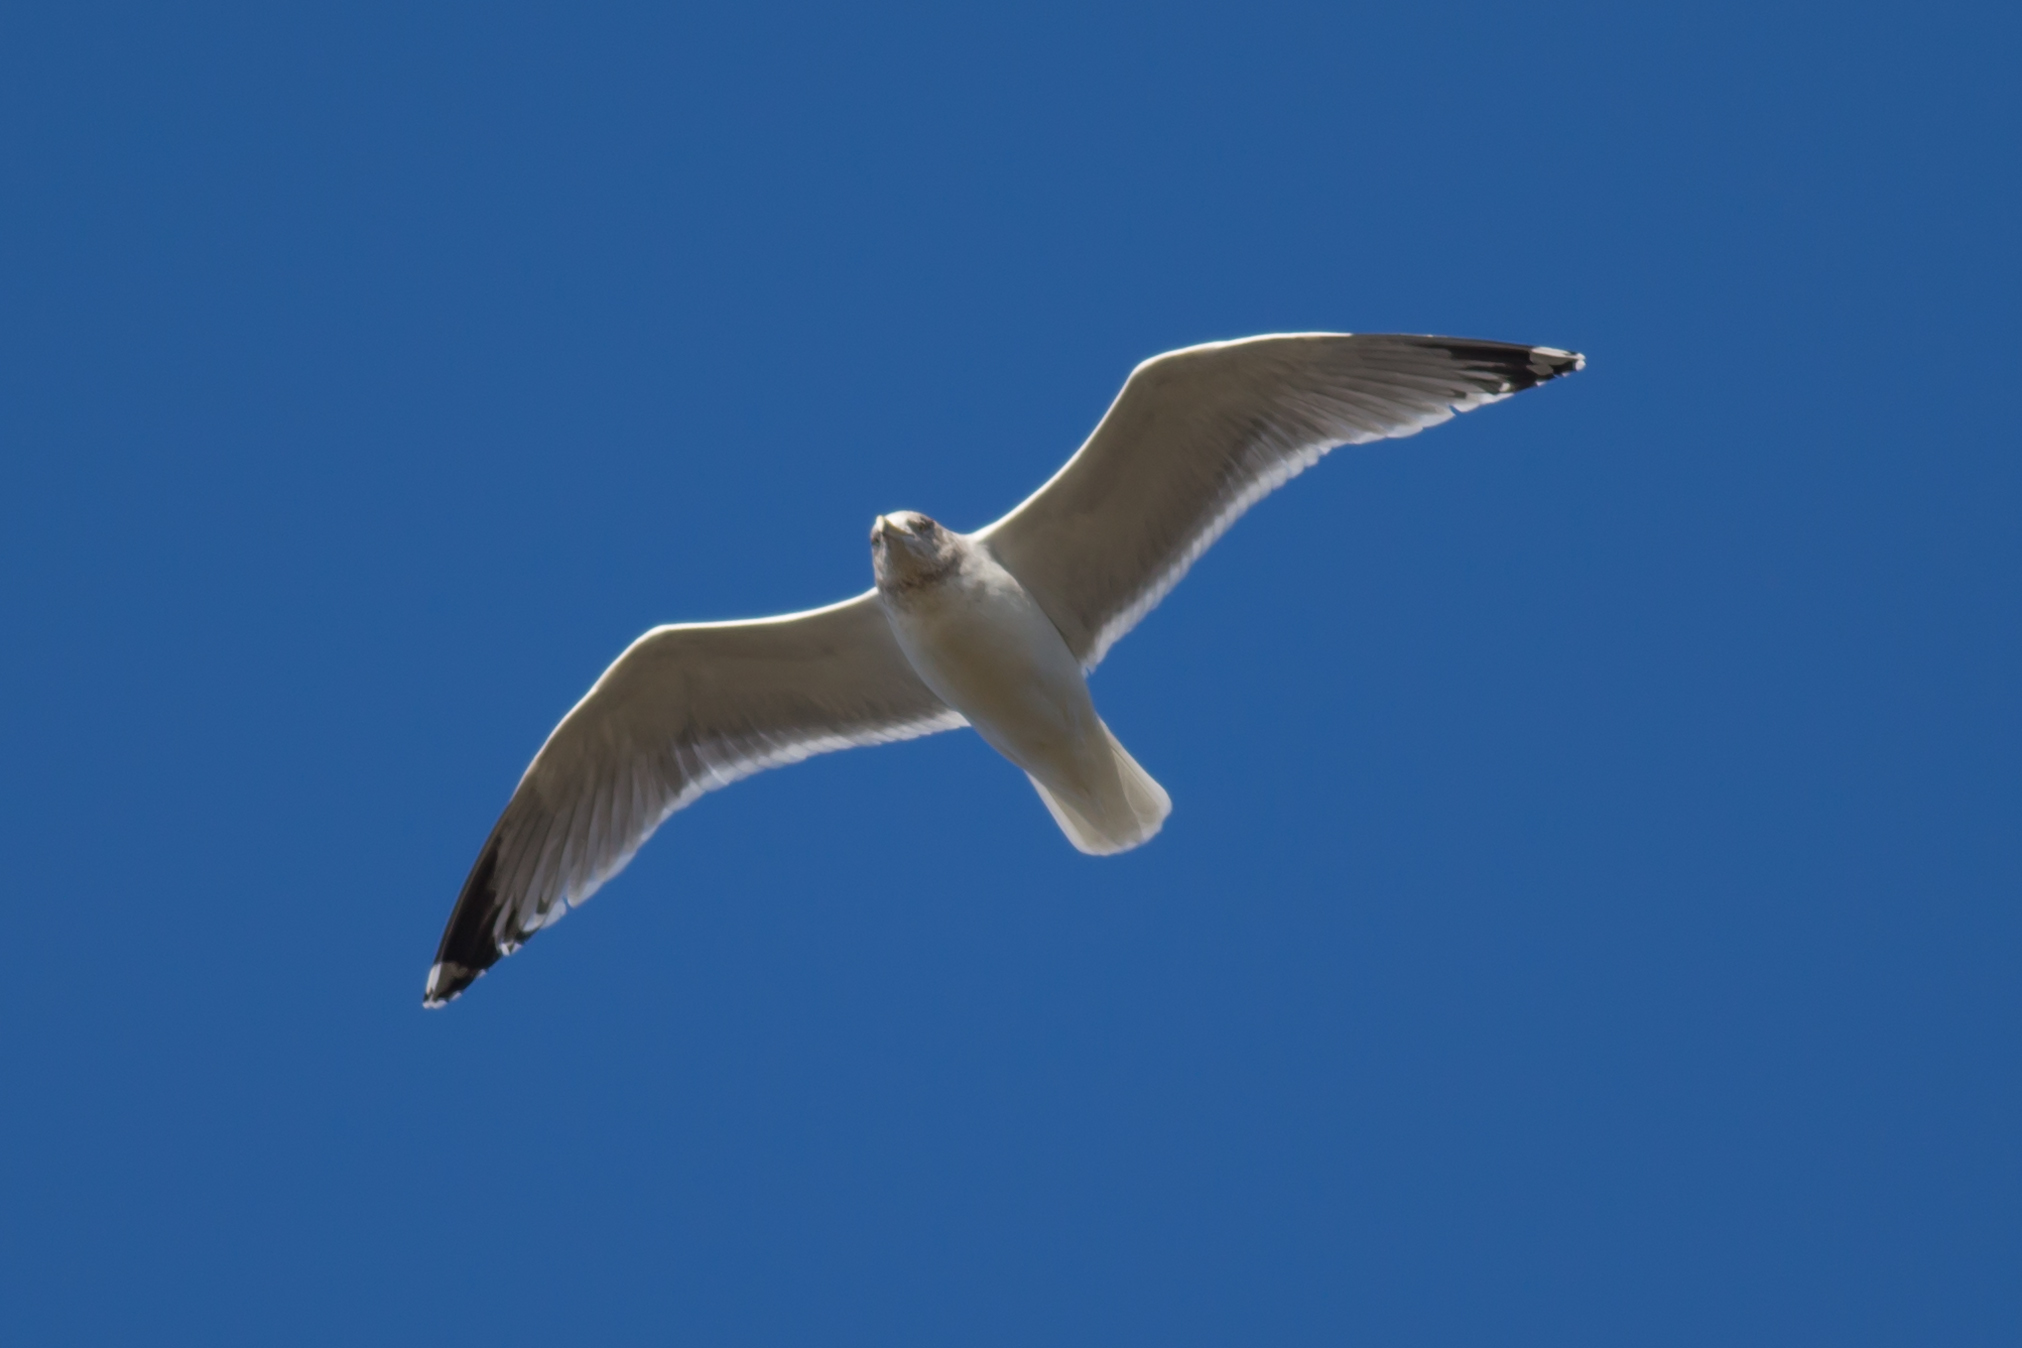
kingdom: Animalia
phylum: Chordata
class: Aves
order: Charadriiformes
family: Laridae
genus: Larus
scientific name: Larus argentatus
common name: Herring gull
